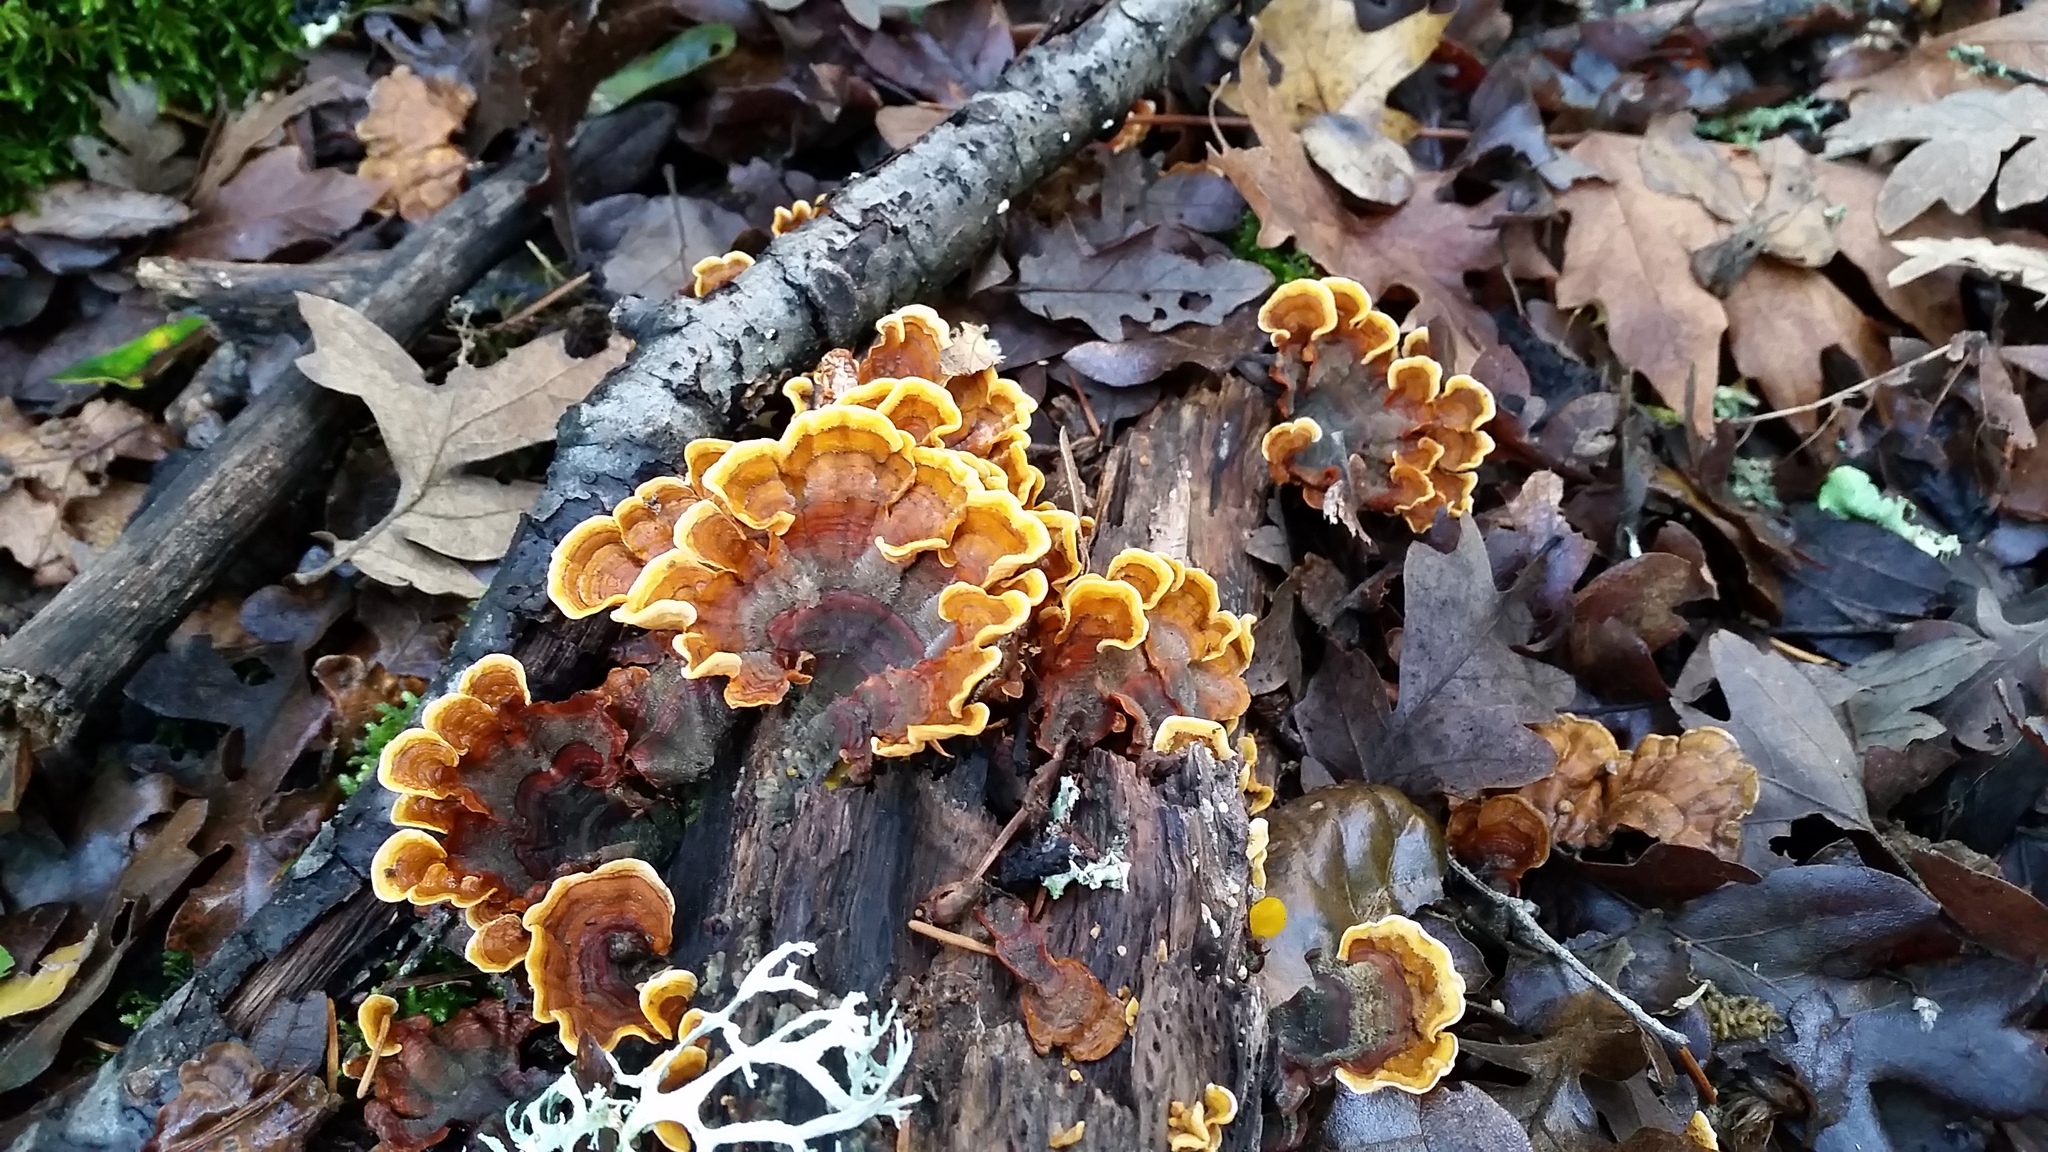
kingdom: Fungi
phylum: Basidiomycota
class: Agaricomycetes
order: Russulales
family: Stereaceae
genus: Stereum
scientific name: Stereum hirsutum
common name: Hairy curtain crust
